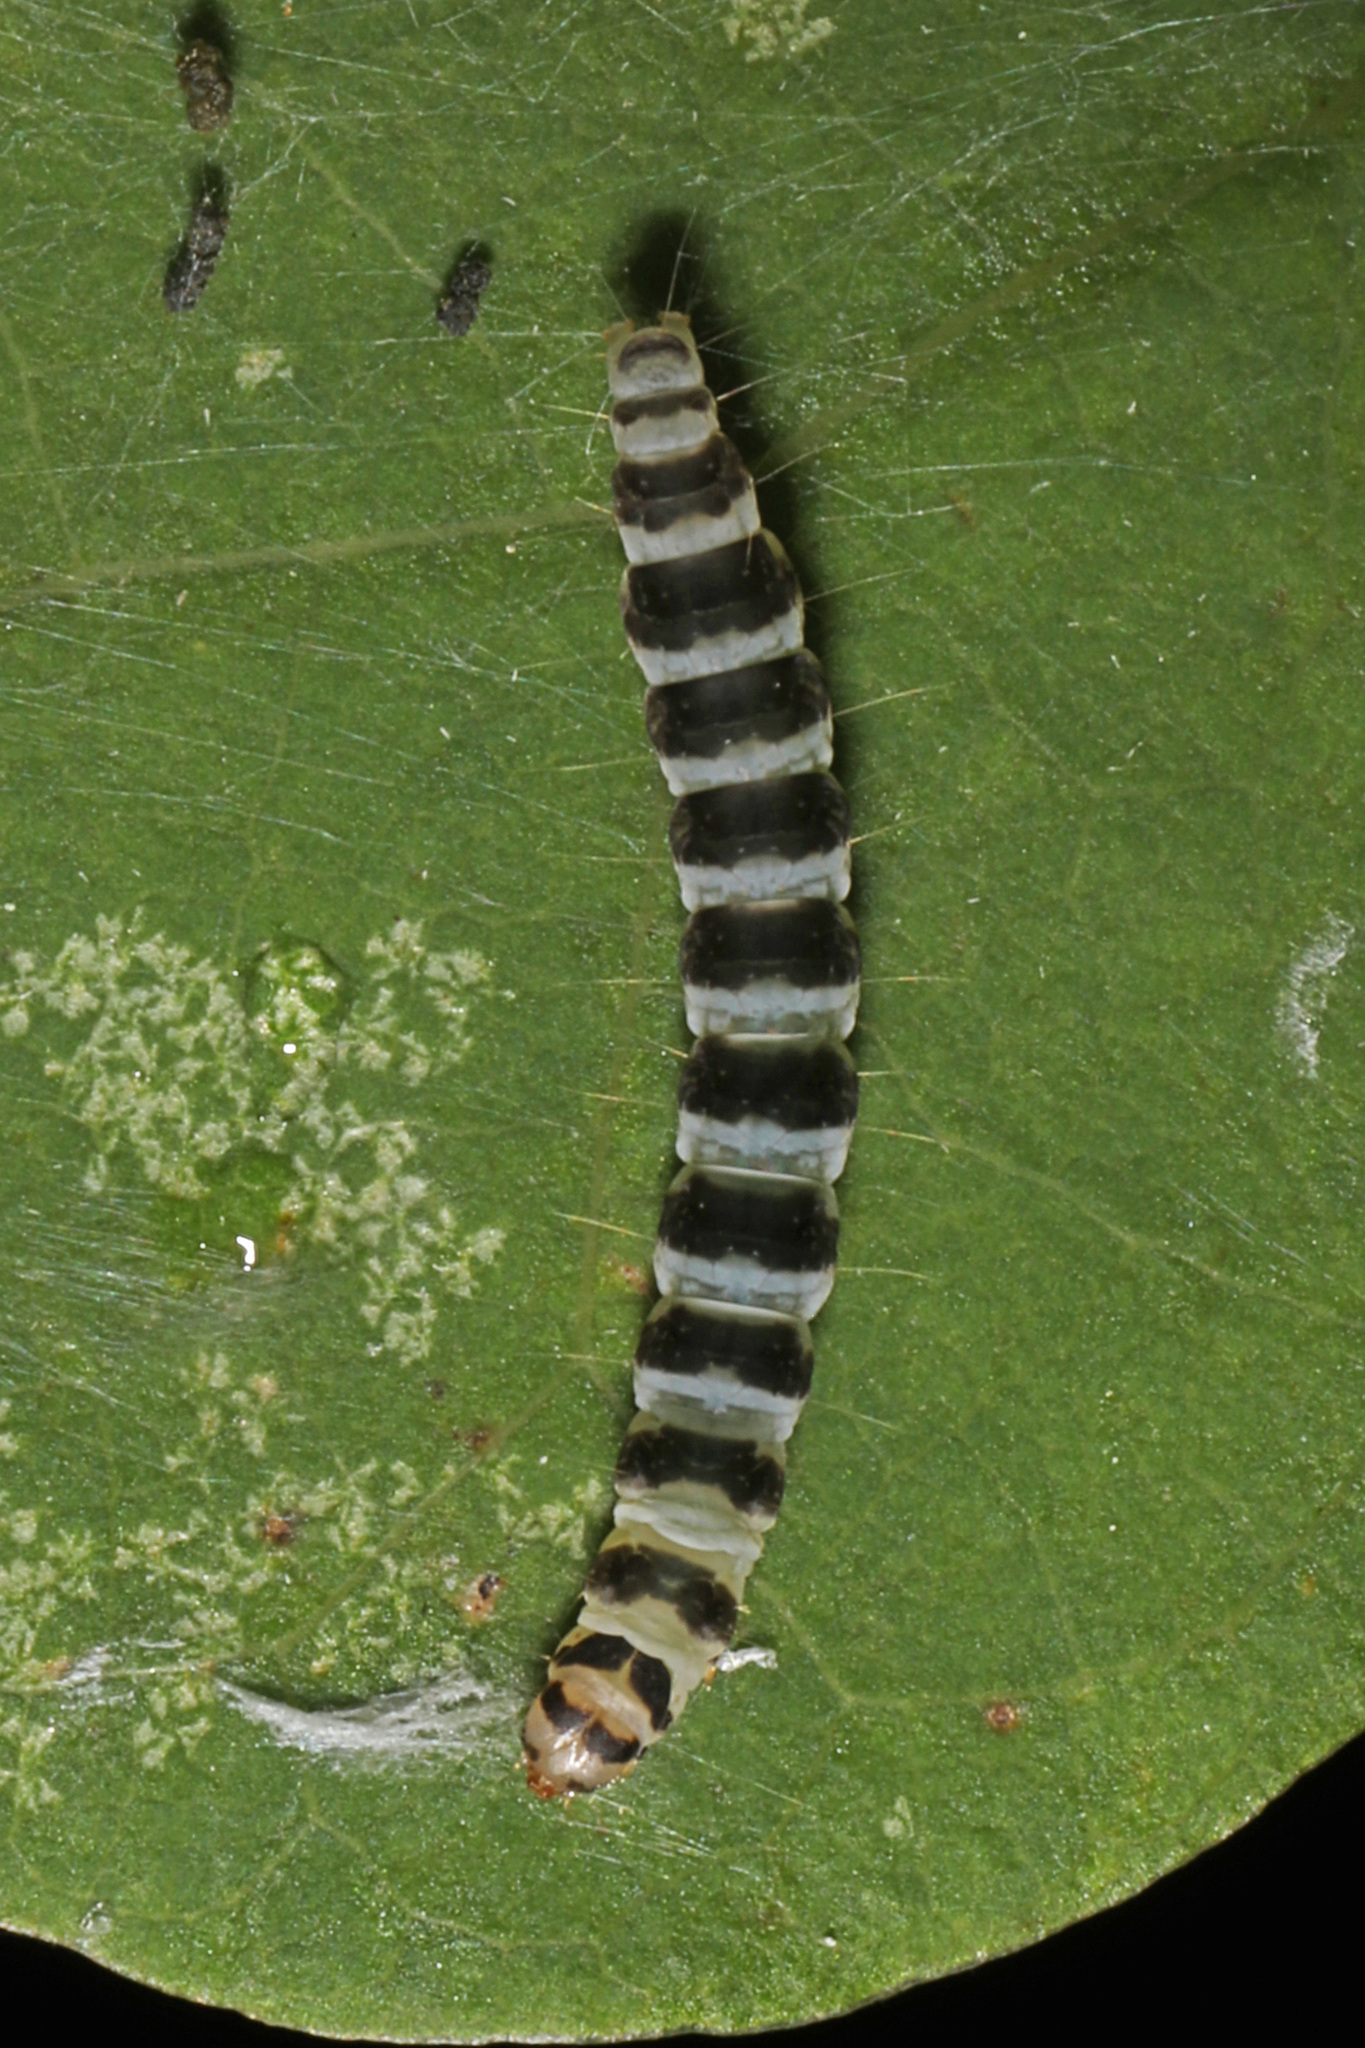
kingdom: Animalia
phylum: Arthropoda
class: Insecta
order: Lepidoptera
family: Gelechiidae
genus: Fascista
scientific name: Fascista cercerisella
